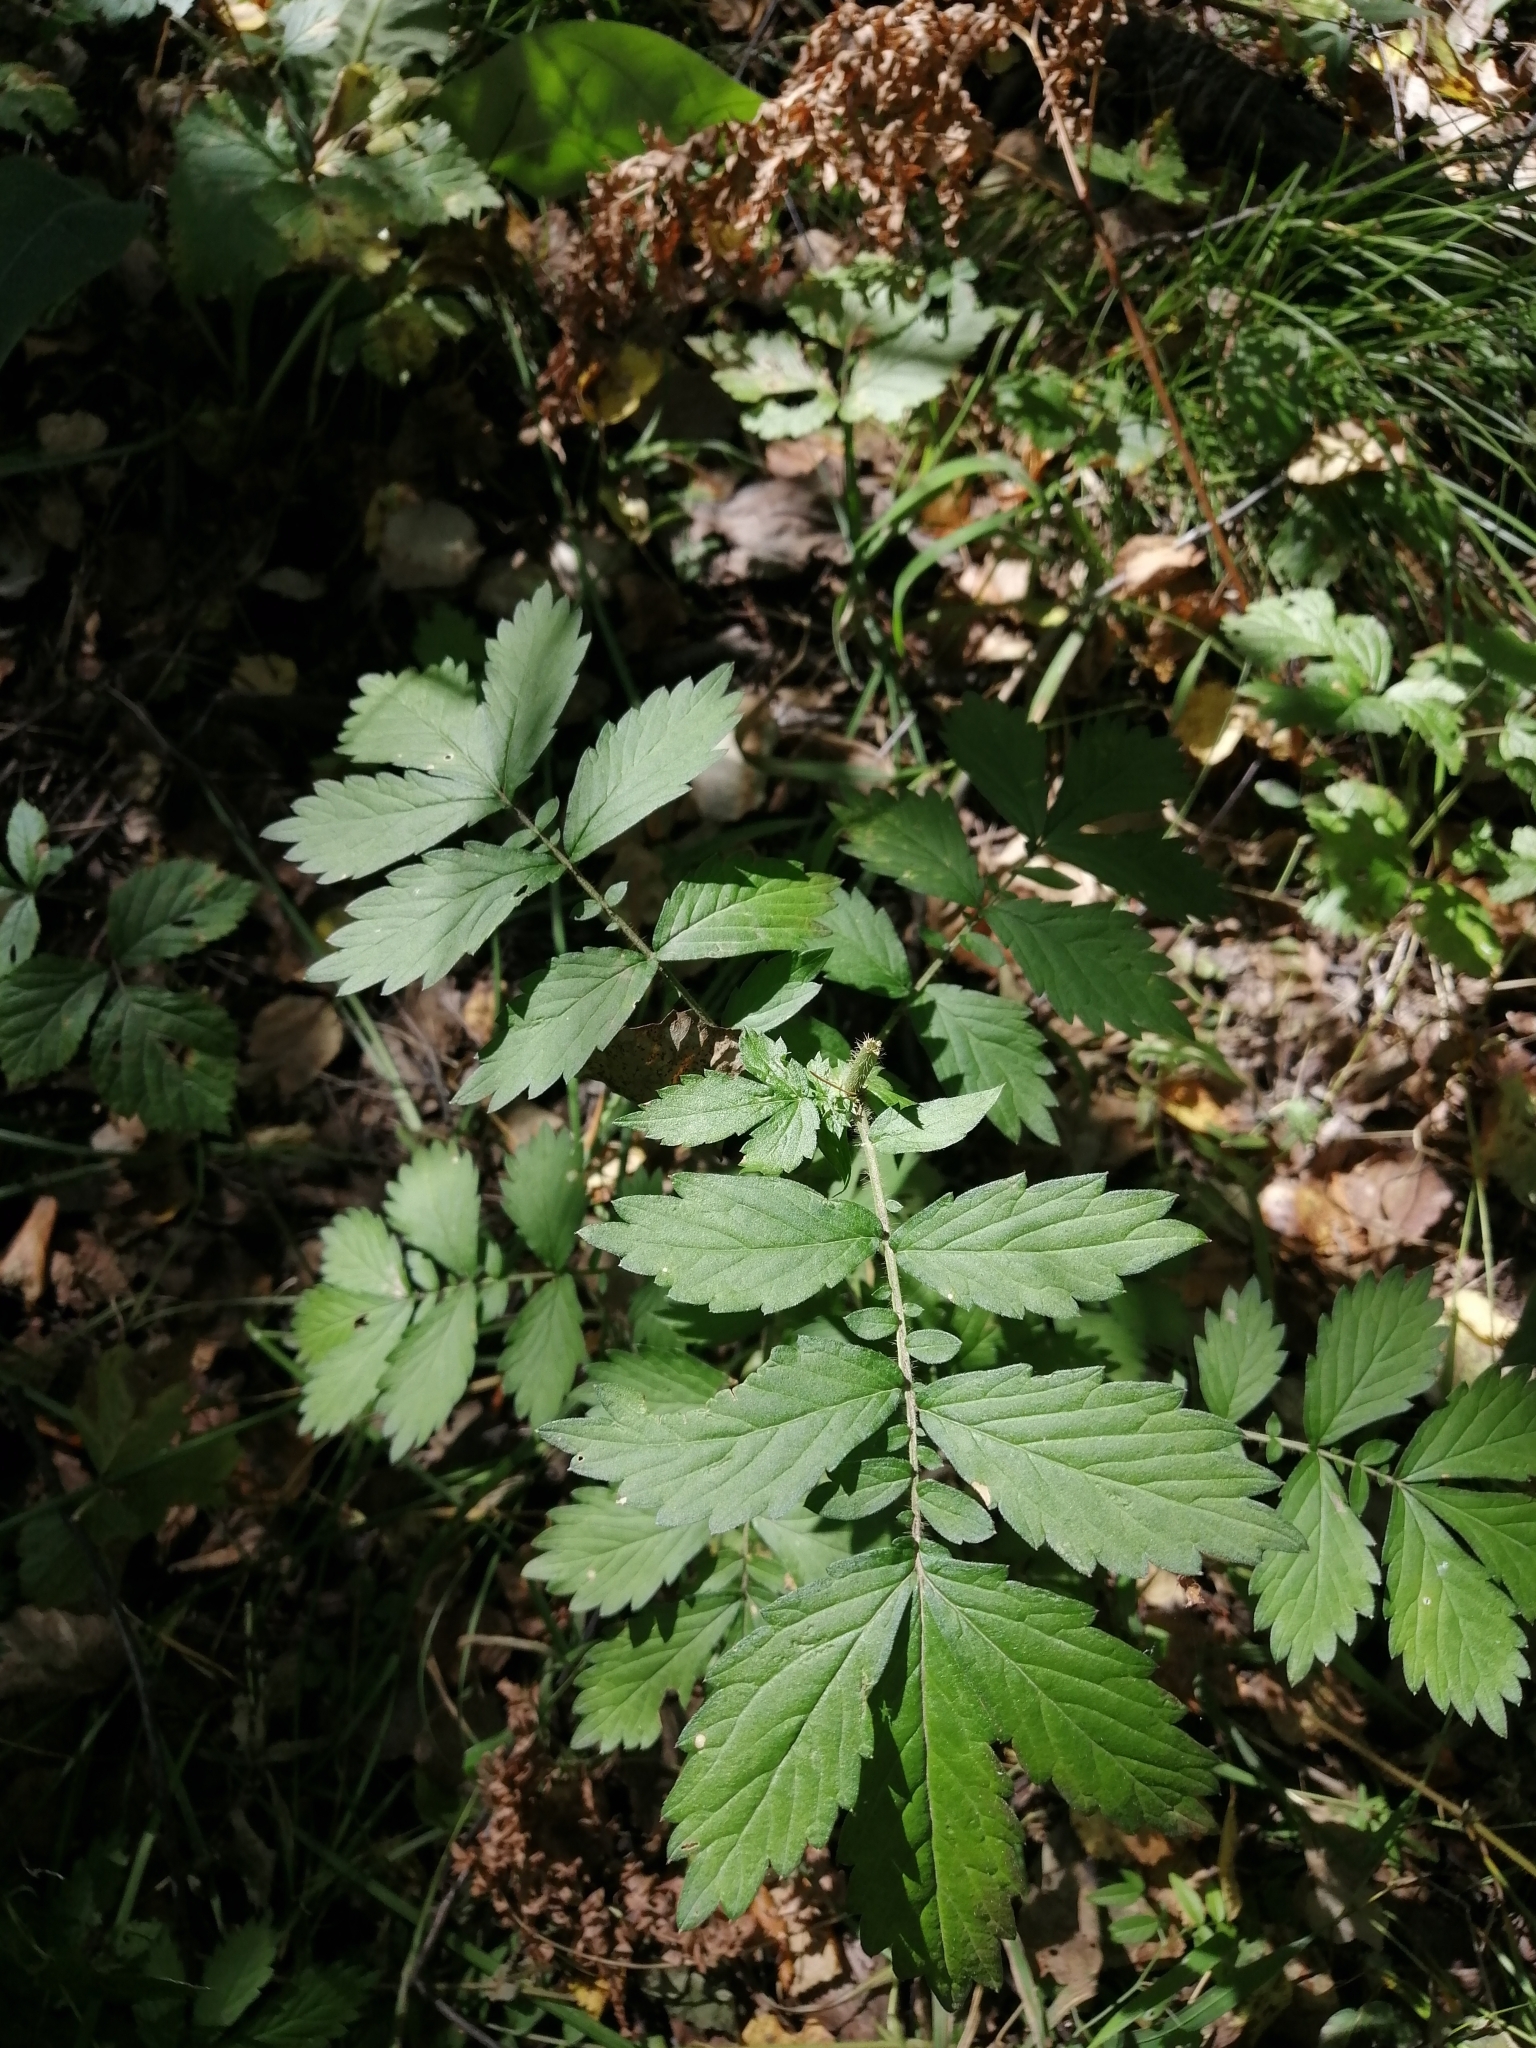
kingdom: Plantae
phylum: Tracheophyta
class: Magnoliopsida
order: Rosales
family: Rosaceae
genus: Agrimonia
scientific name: Agrimonia pilosa
